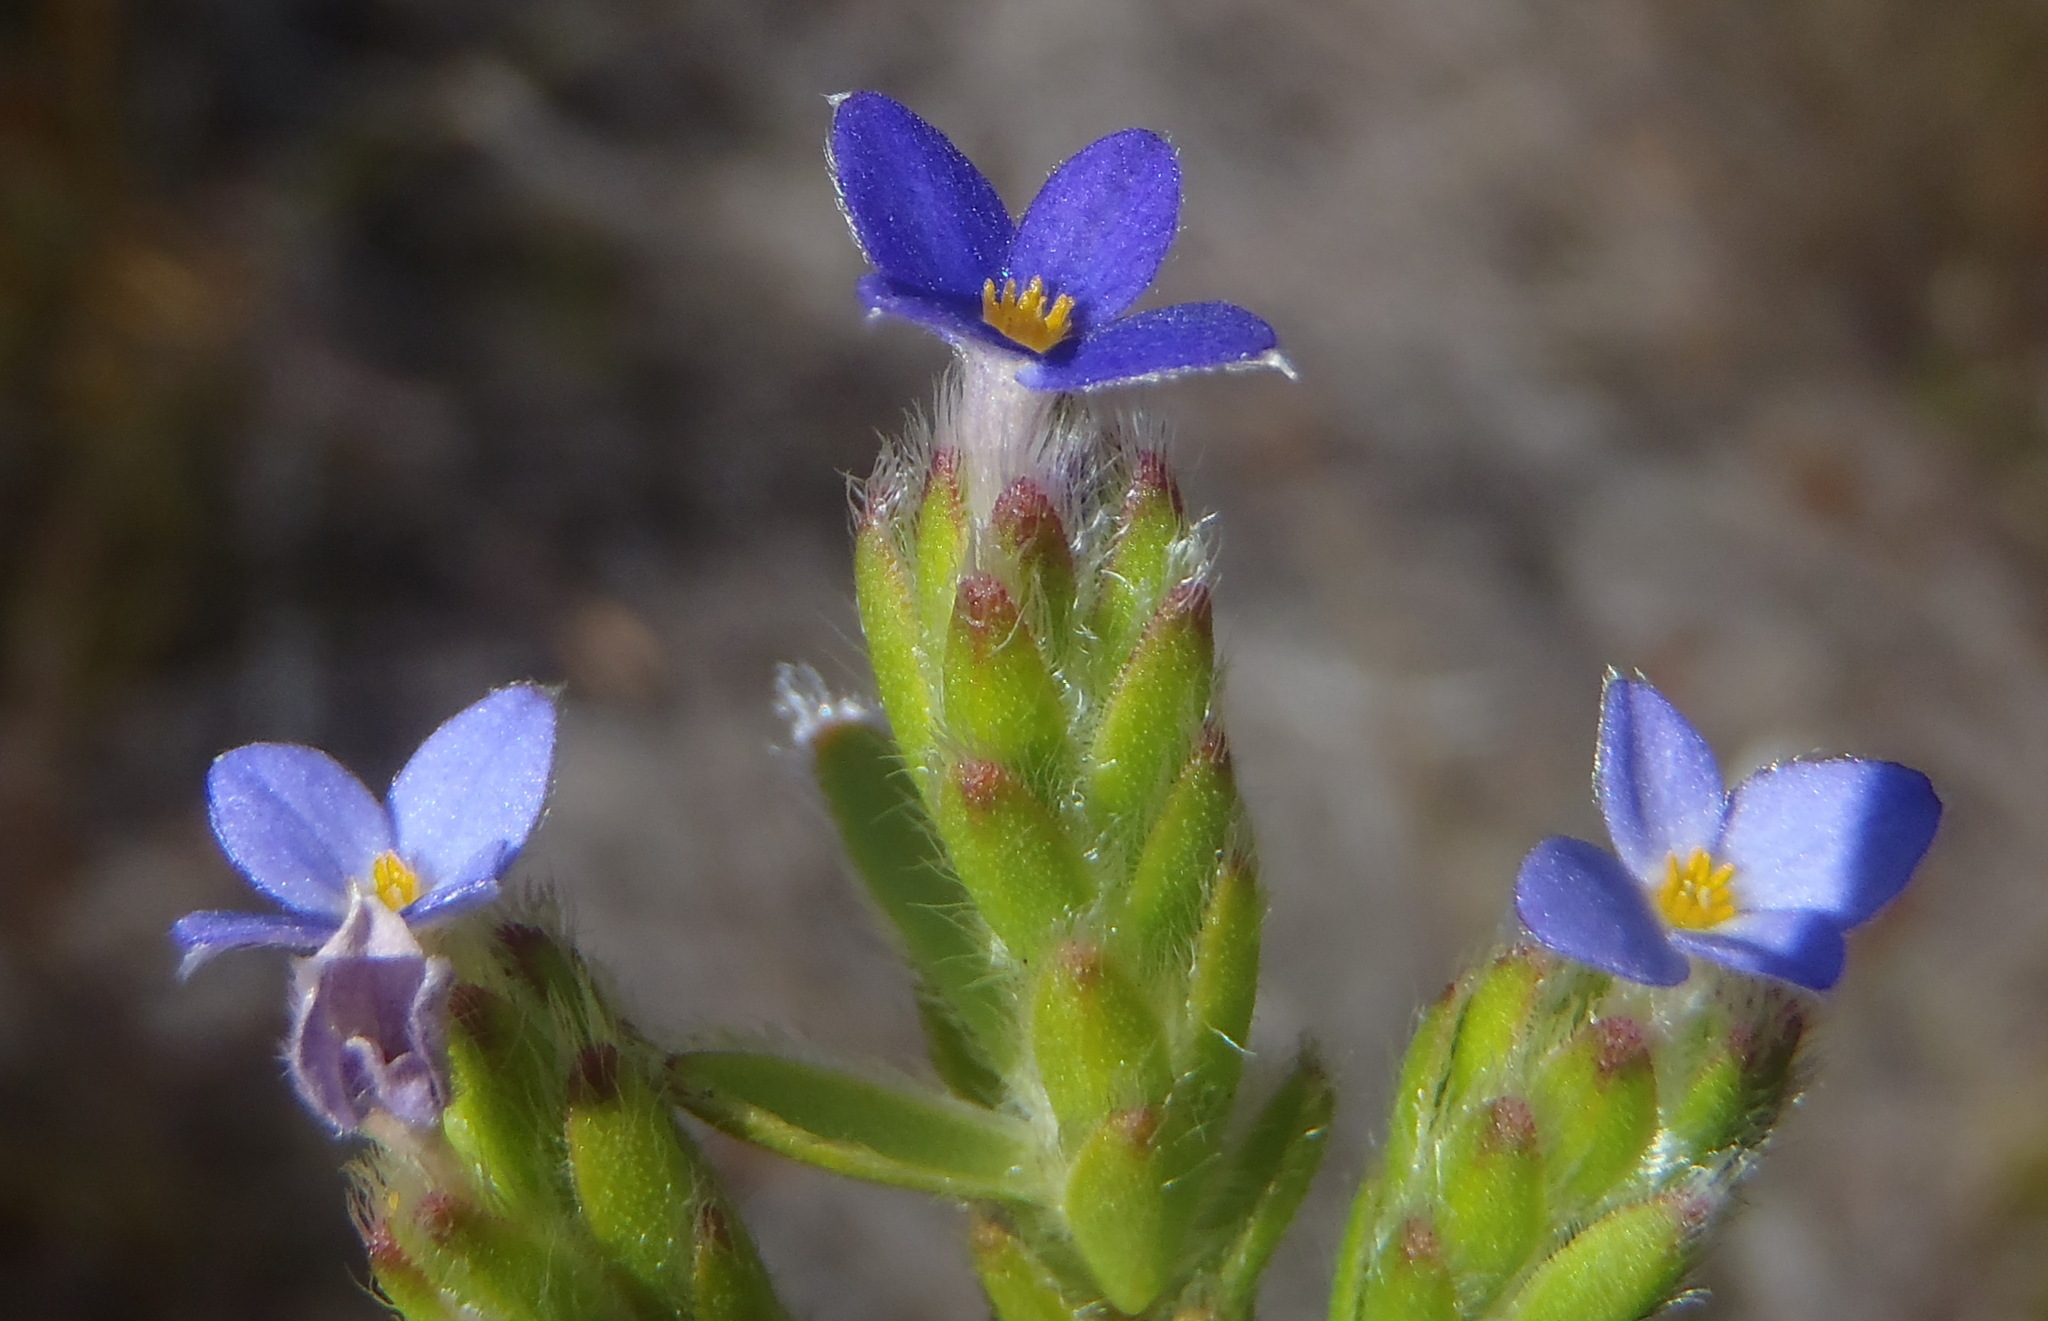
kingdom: Plantae
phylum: Tracheophyta
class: Magnoliopsida
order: Malvales
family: Thymelaeaceae
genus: Gnidia
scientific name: Gnidia penicillata
